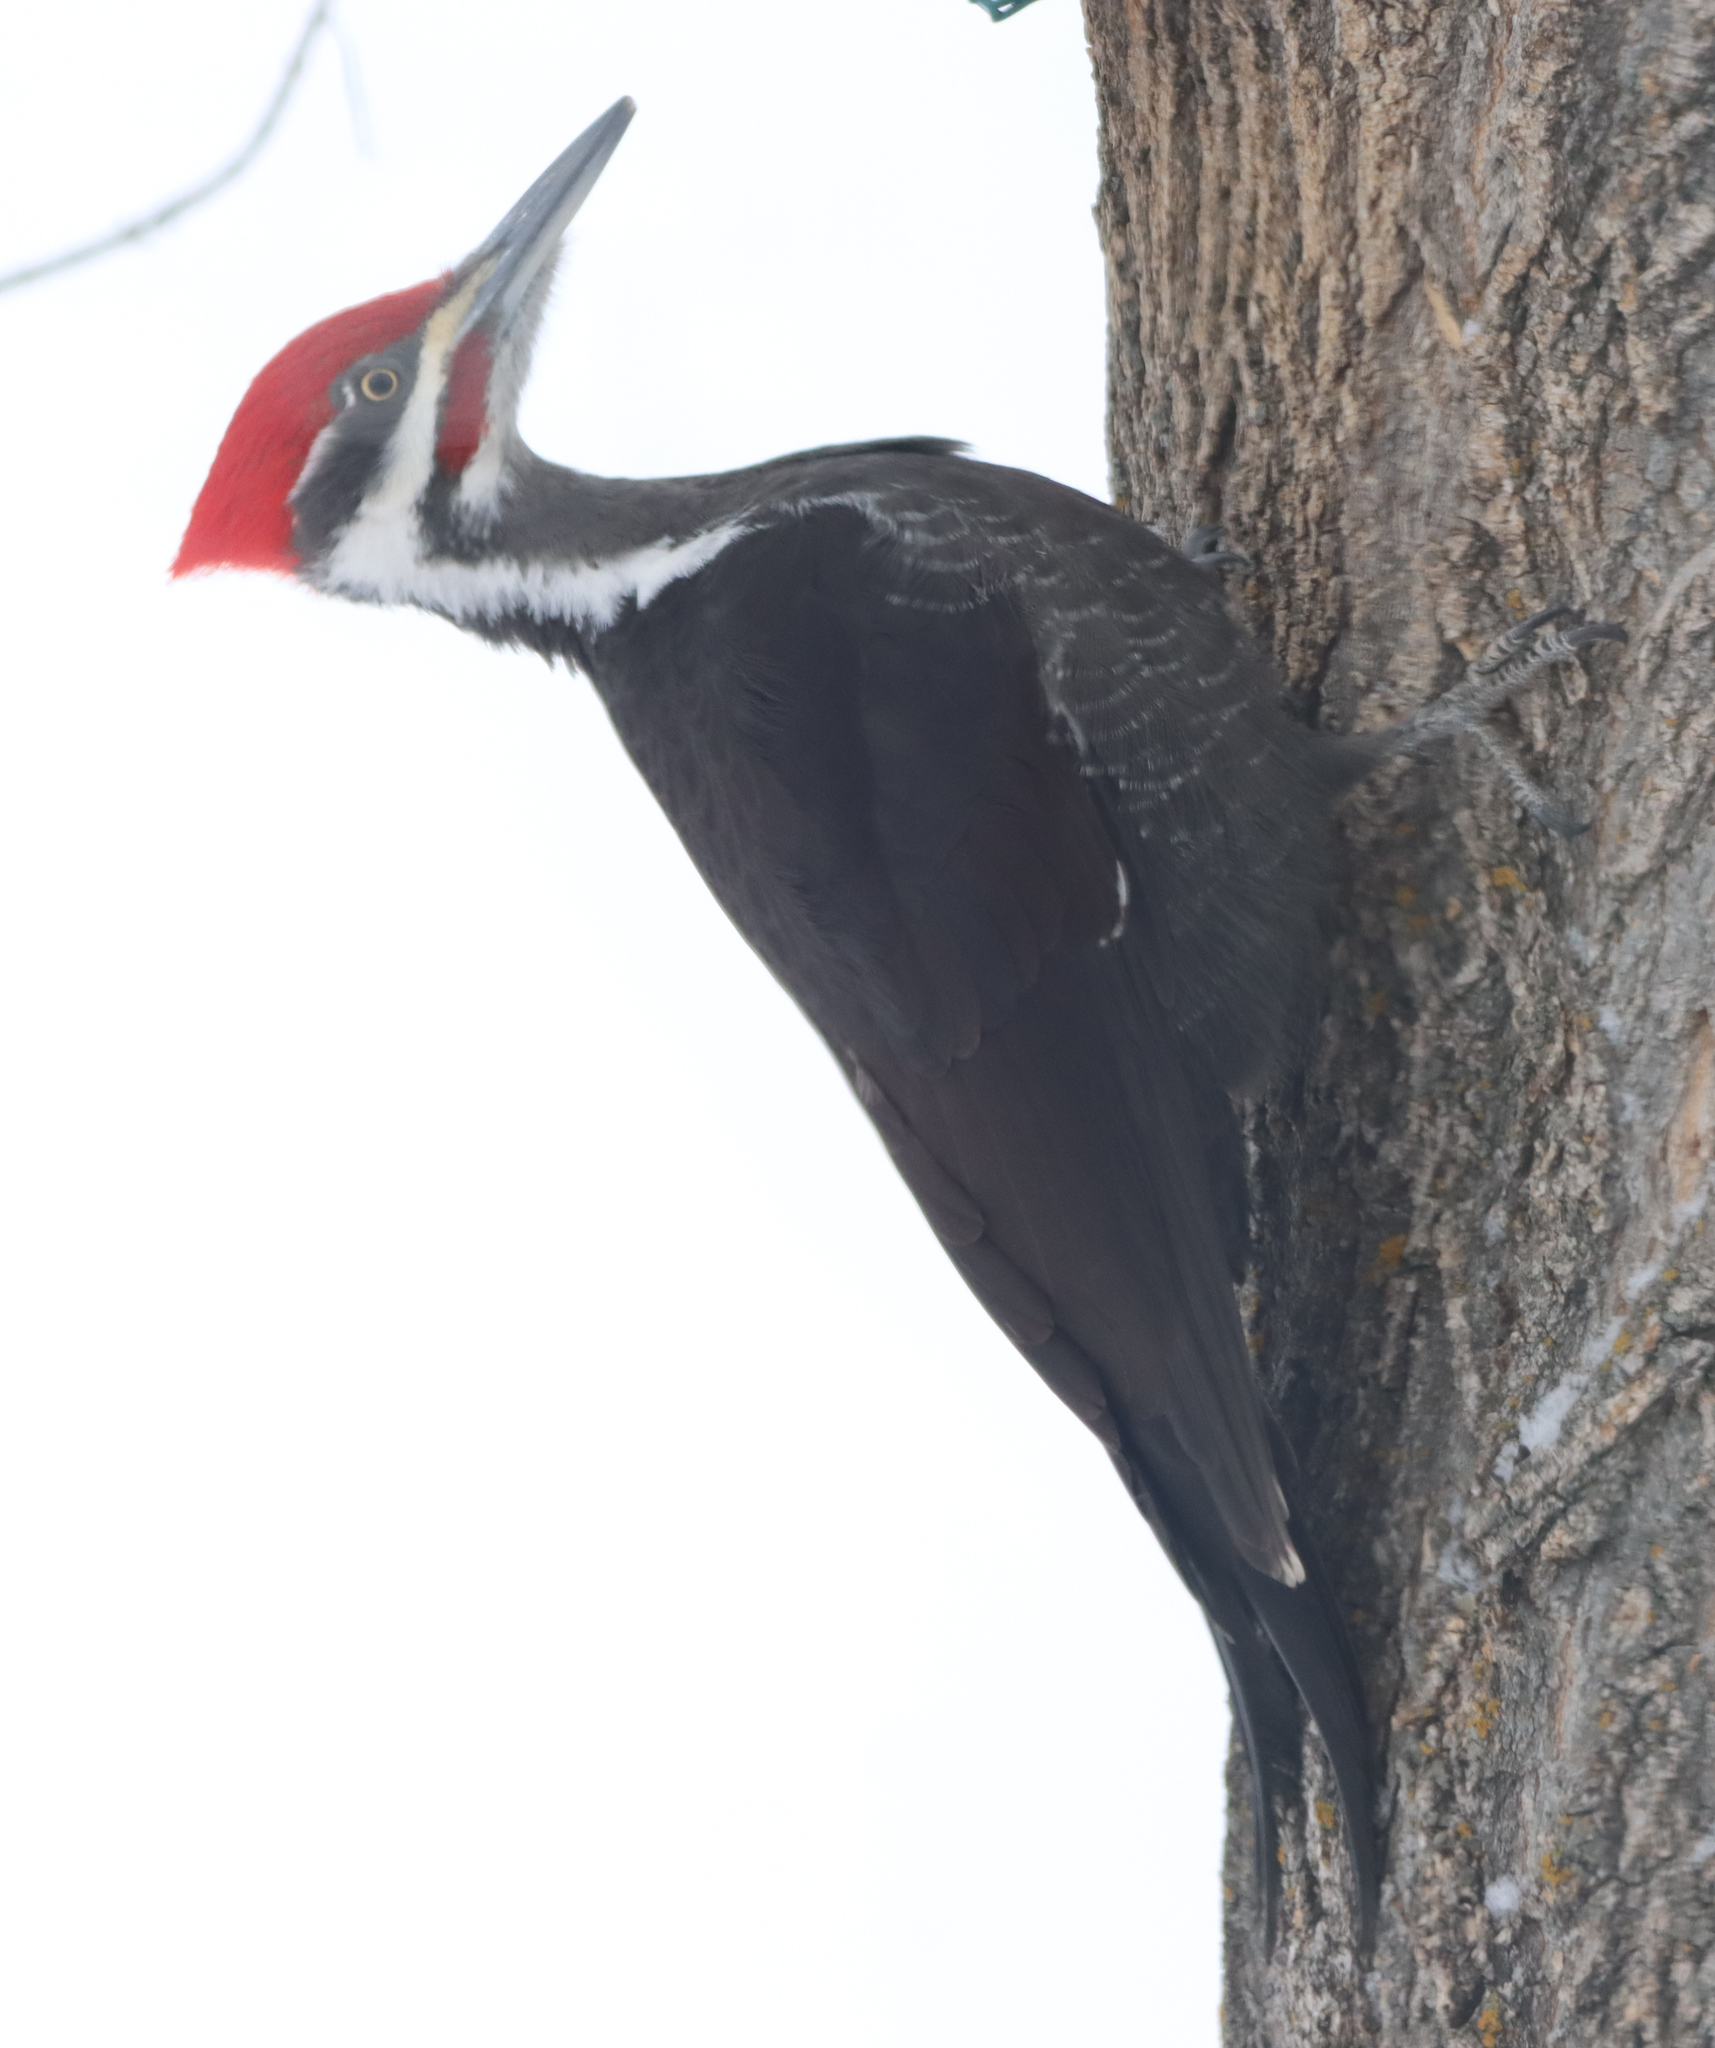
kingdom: Animalia
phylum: Chordata
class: Aves
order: Piciformes
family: Picidae
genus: Dryocopus
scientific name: Dryocopus pileatus
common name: Pileated woodpecker
